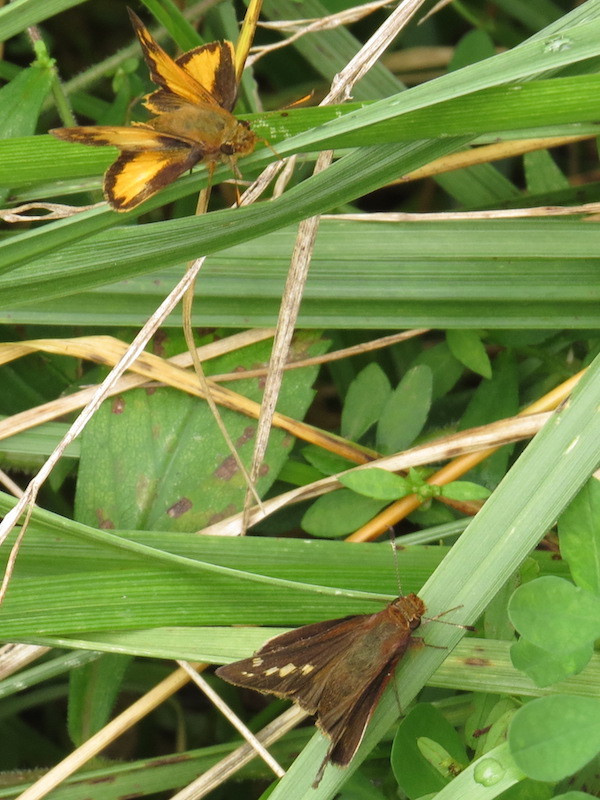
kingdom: Animalia
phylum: Arthropoda
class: Insecta
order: Lepidoptera
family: Hesperiidae
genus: Lon
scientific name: Lon zabulon
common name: Zabulon skipper
